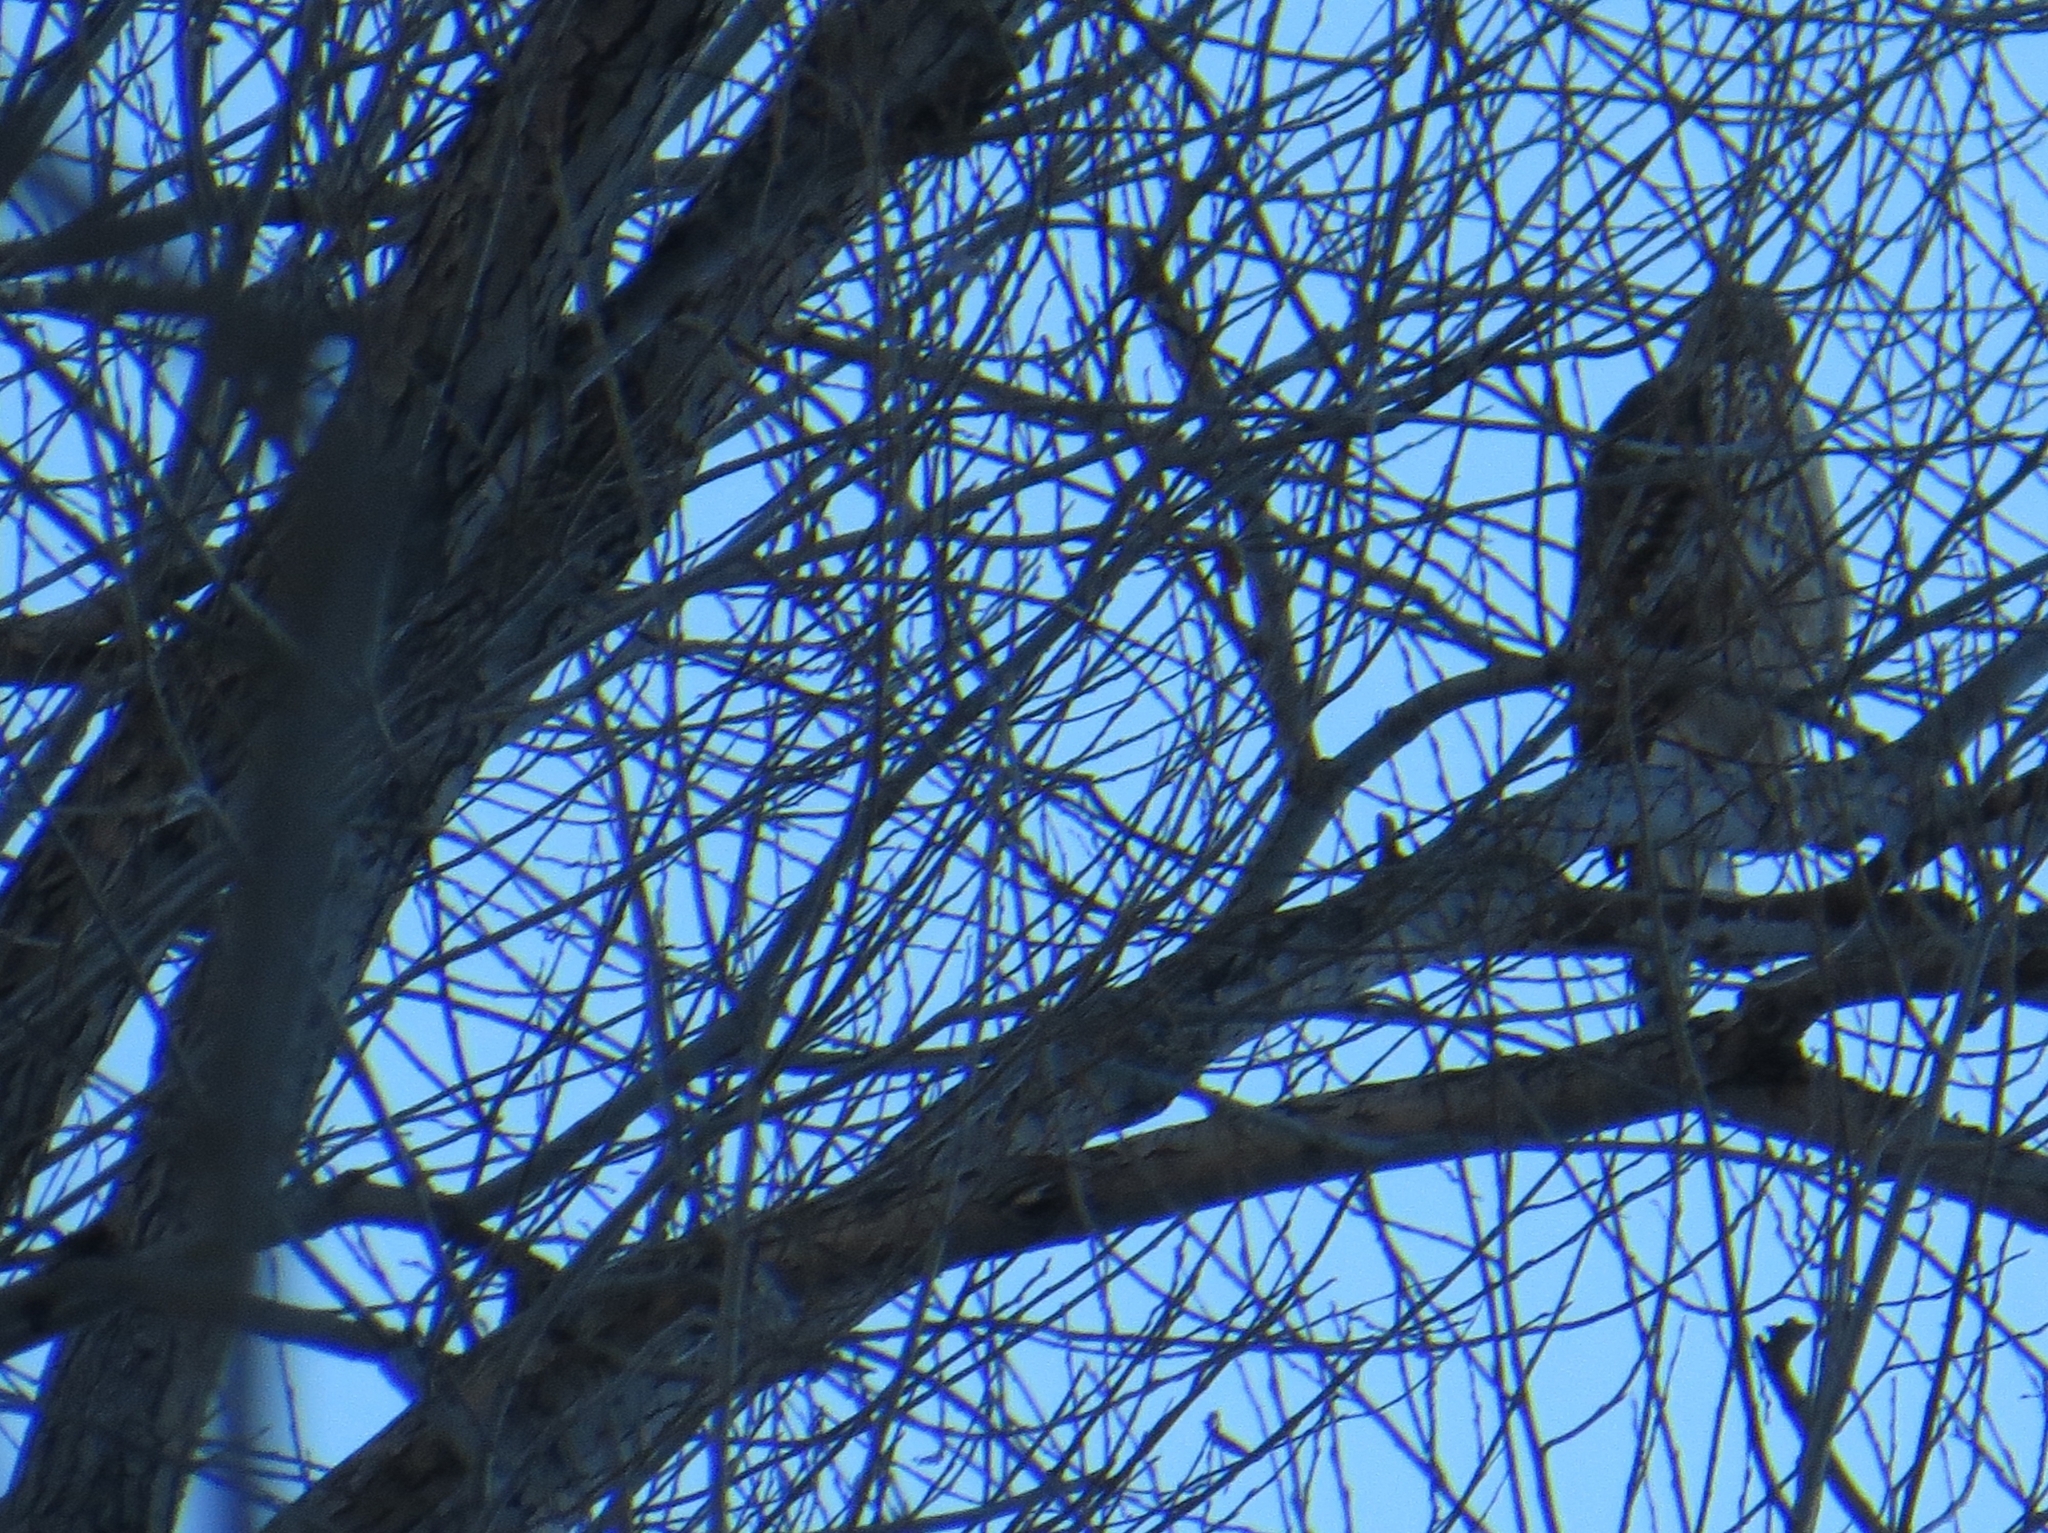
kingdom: Animalia
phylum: Chordata
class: Aves
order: Accipitriformes
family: Accipitridae
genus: Accipiter
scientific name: Accipiter gentilis
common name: Northern goshawk
